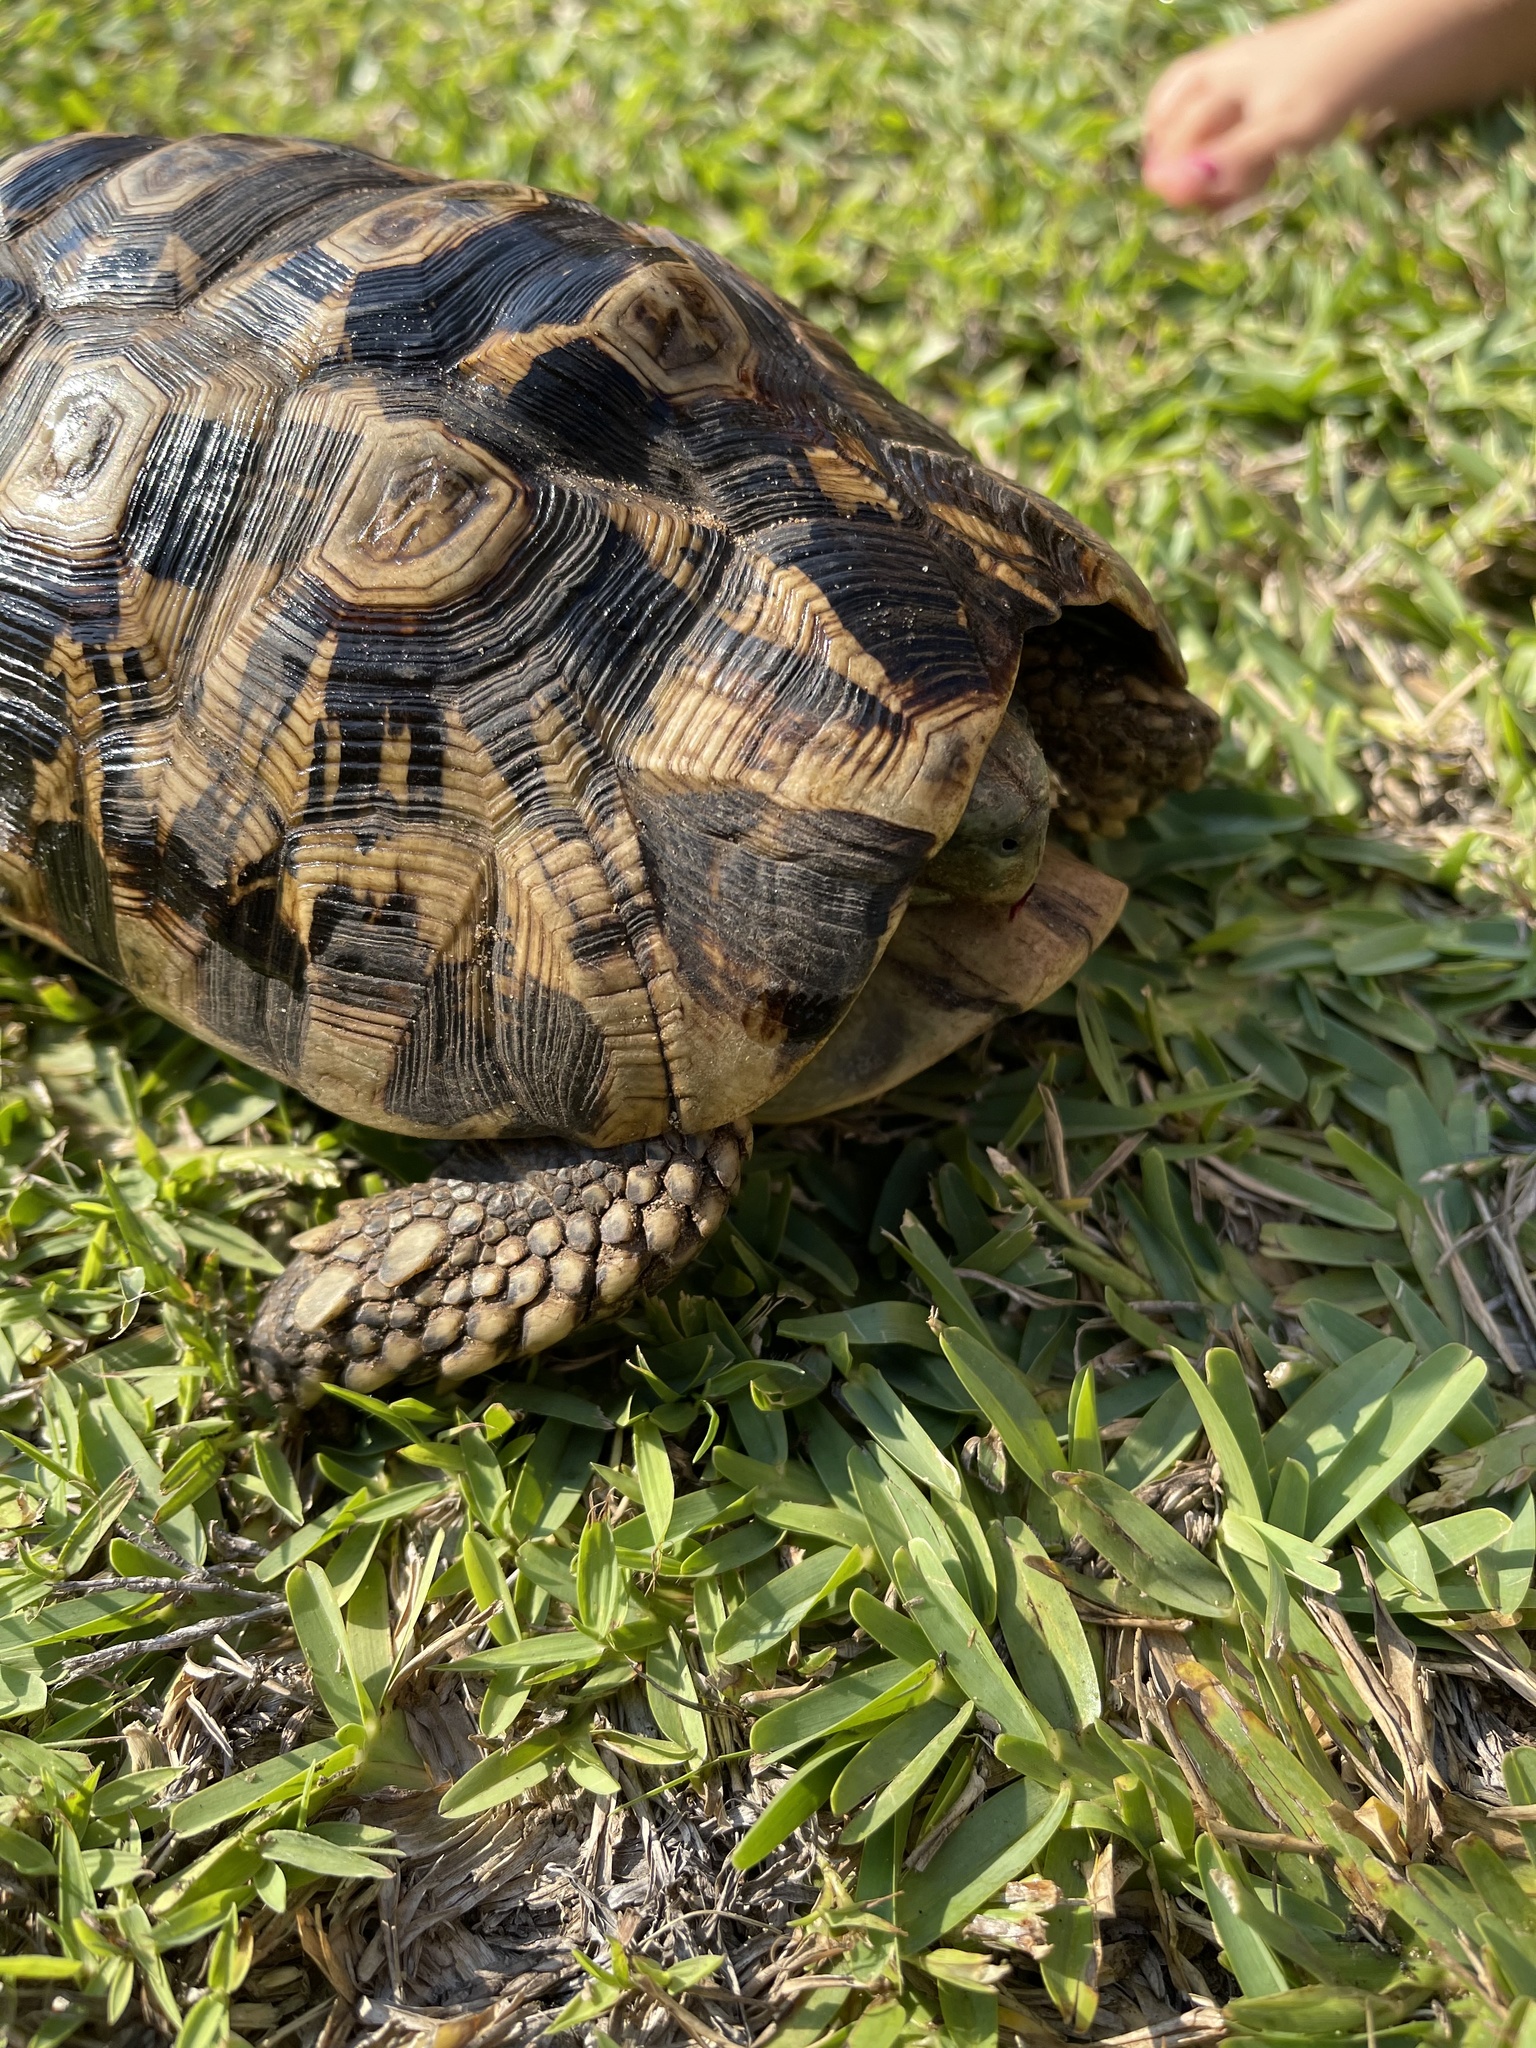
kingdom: Animalia
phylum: Chordata
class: Testudines
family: Testudinidae
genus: Kinixys
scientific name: Kinixys zombensis
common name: Southeastern hinge-back tortoise
